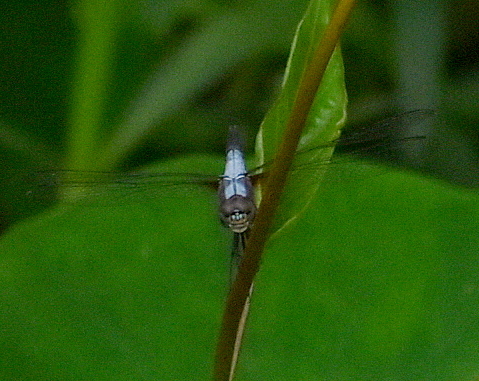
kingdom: Animalia
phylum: Arthropoda
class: Insecta
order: Odonata
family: Libellulidae
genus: Brachydiplax
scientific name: Brachydiplax chalybea
